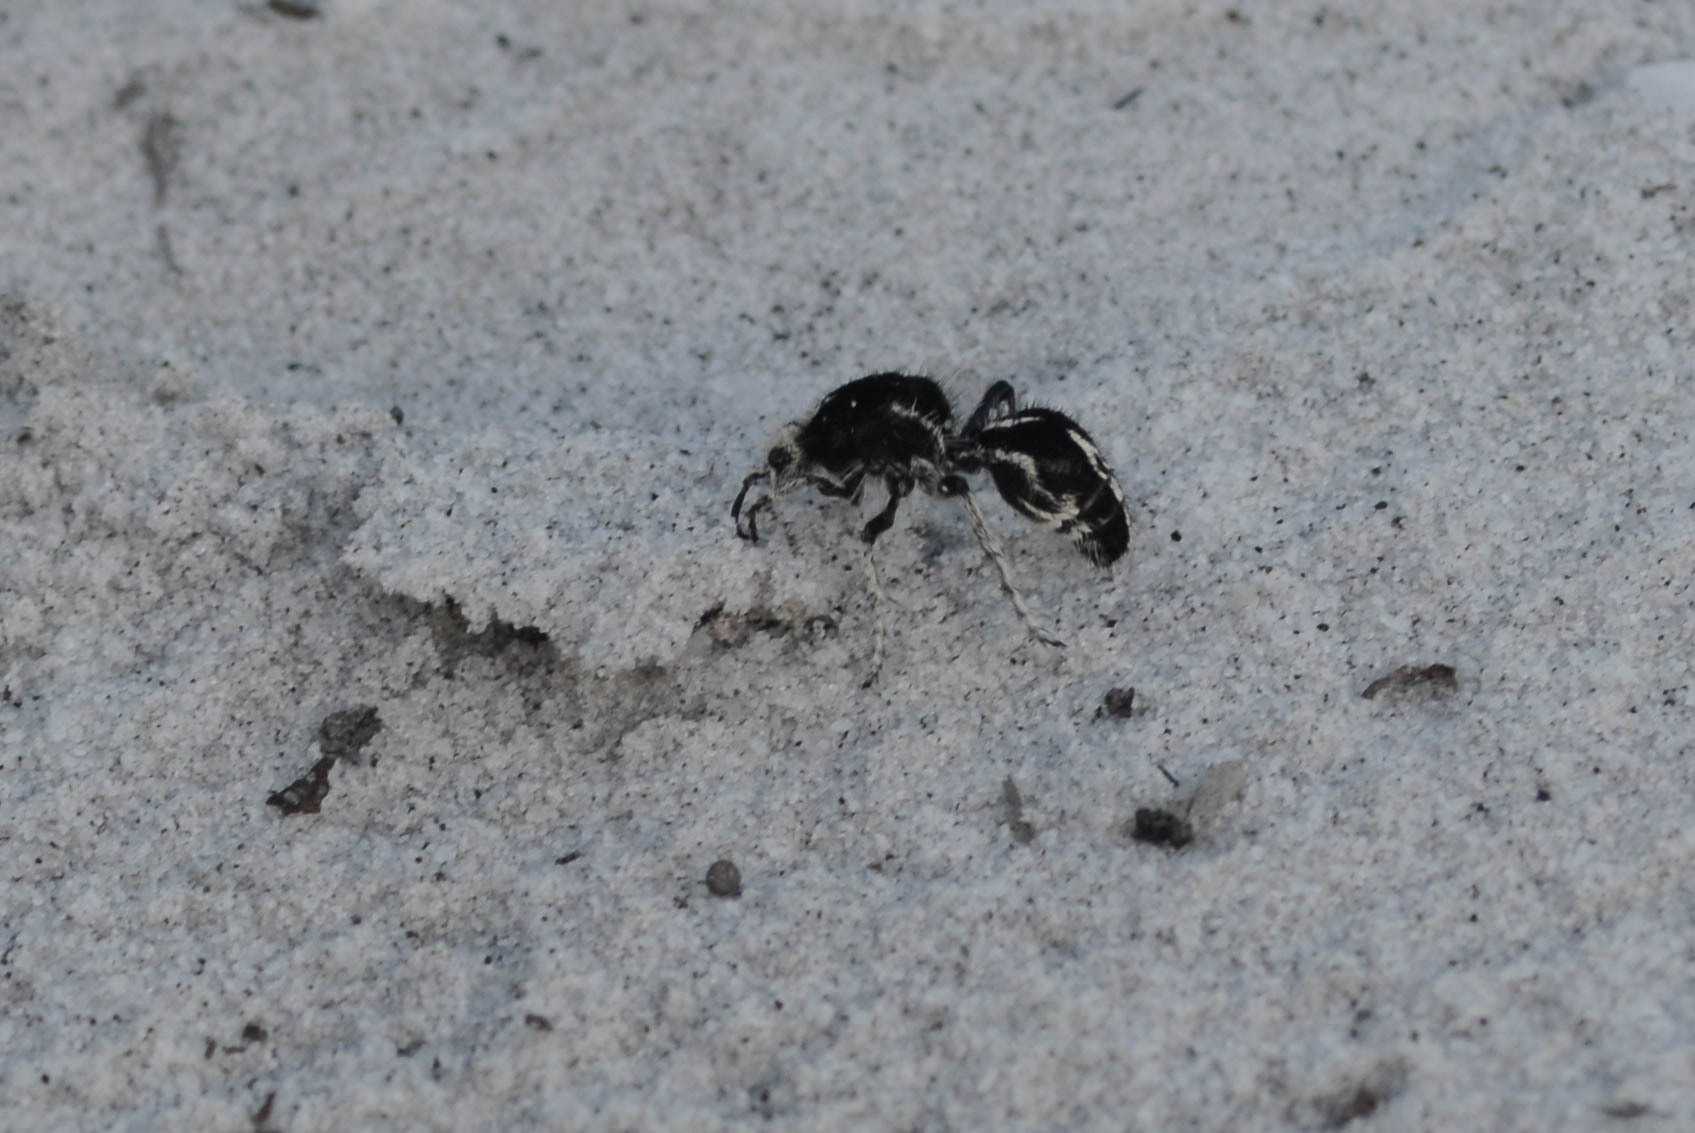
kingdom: Animalia
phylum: Arthropoda
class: Insecta
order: Hymenoptera
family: Mutillidae
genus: Leucospilomutilla
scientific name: Leucospilomutilla cerbera
